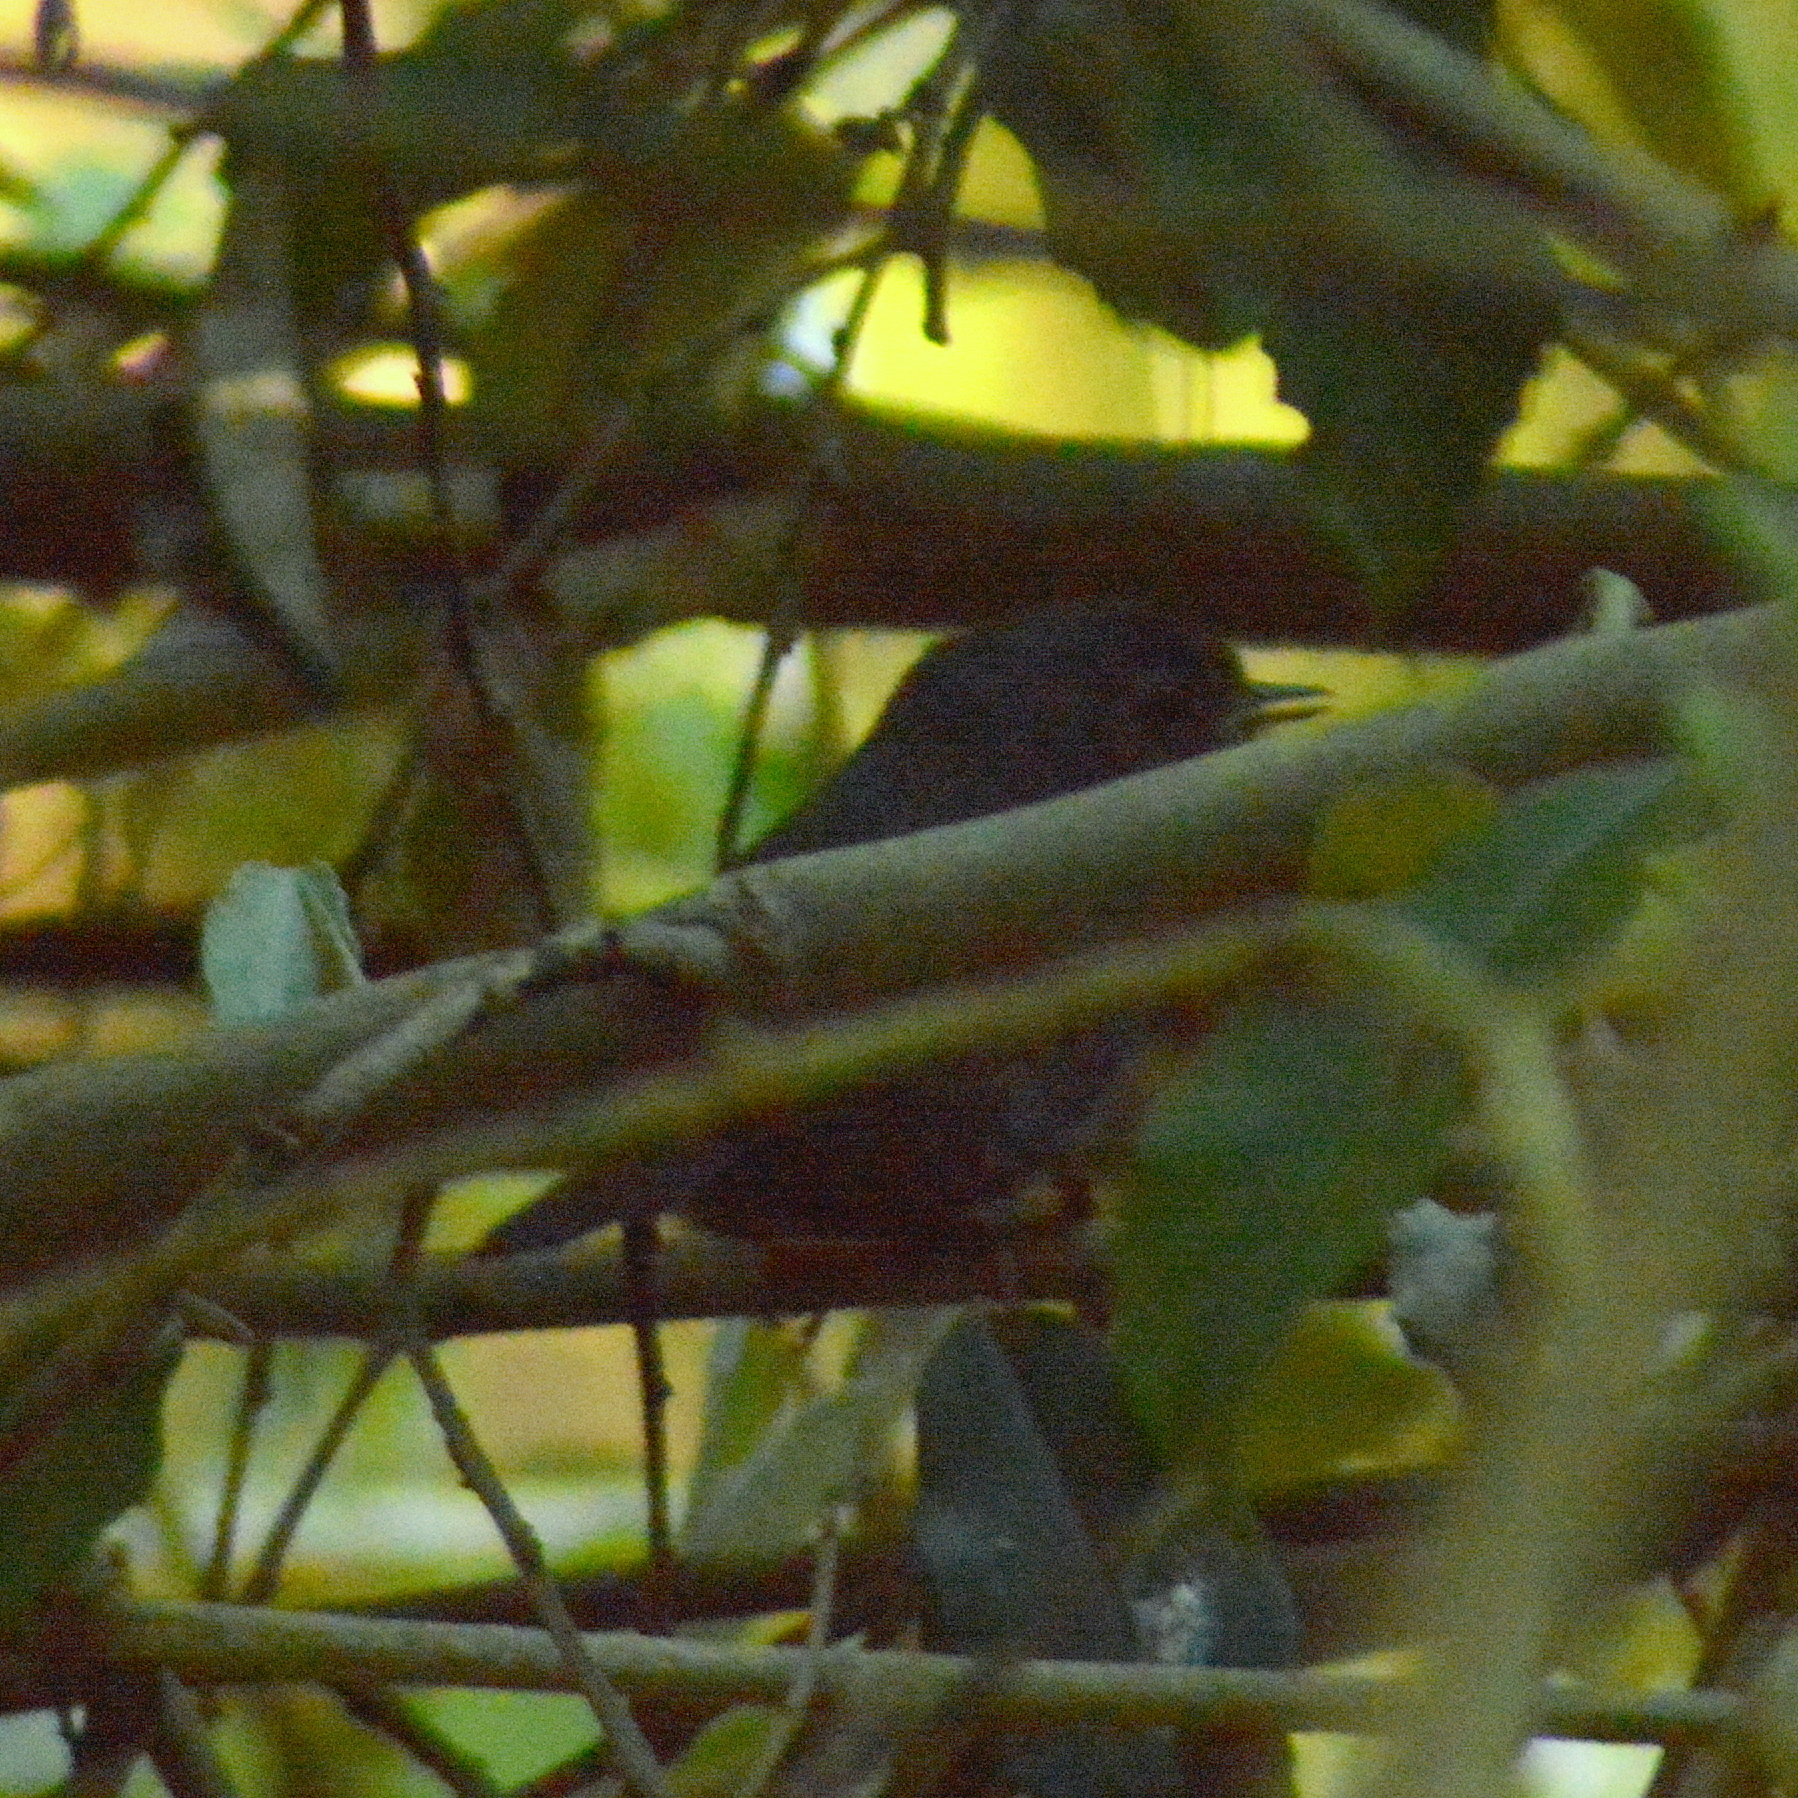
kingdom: Animalia
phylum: Chordata
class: Aves
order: Passeriformes
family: Rhinocryptidae
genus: Scytalopus
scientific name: Scytalopus speluncae
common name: Mouse-colored tapaculo
